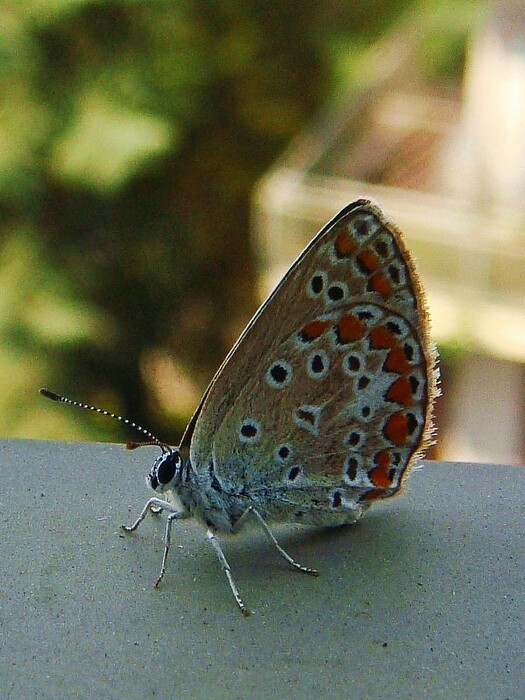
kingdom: Animalia
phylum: Arthropoda
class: Insecta
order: Lepidoptera
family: Lycaenidae
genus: Polyommatus
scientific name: Polyommatus icarus
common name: Common blue
